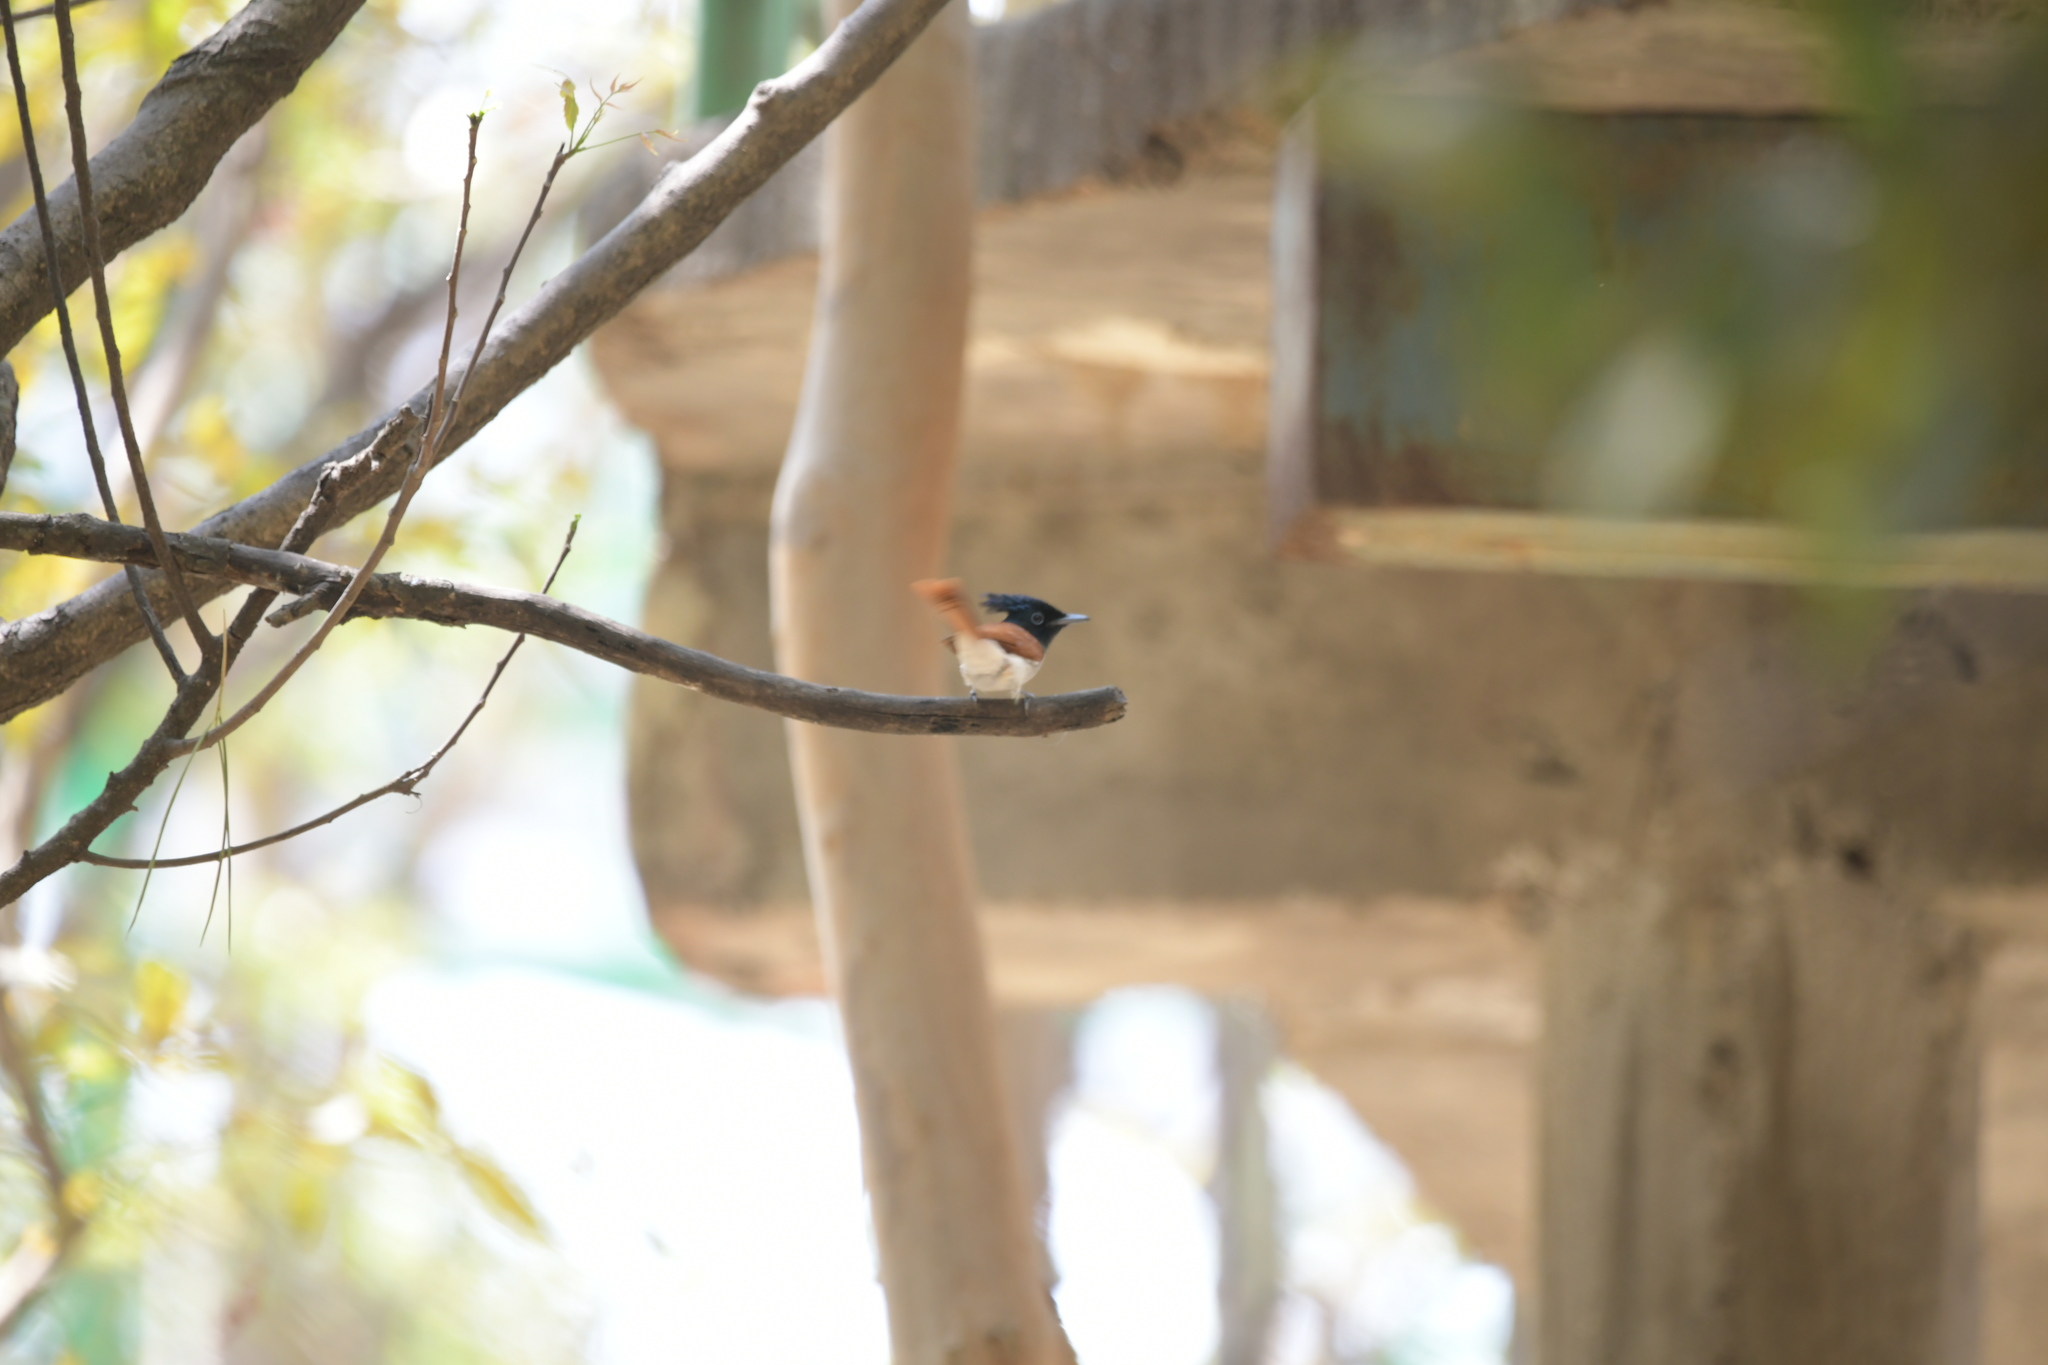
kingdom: Animalia
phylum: Chordata
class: Aves
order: Passeriformes
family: Monarchidae
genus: Terpsiphone
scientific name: Terpsiphone paradisi
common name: Indian paradise flycatcher
